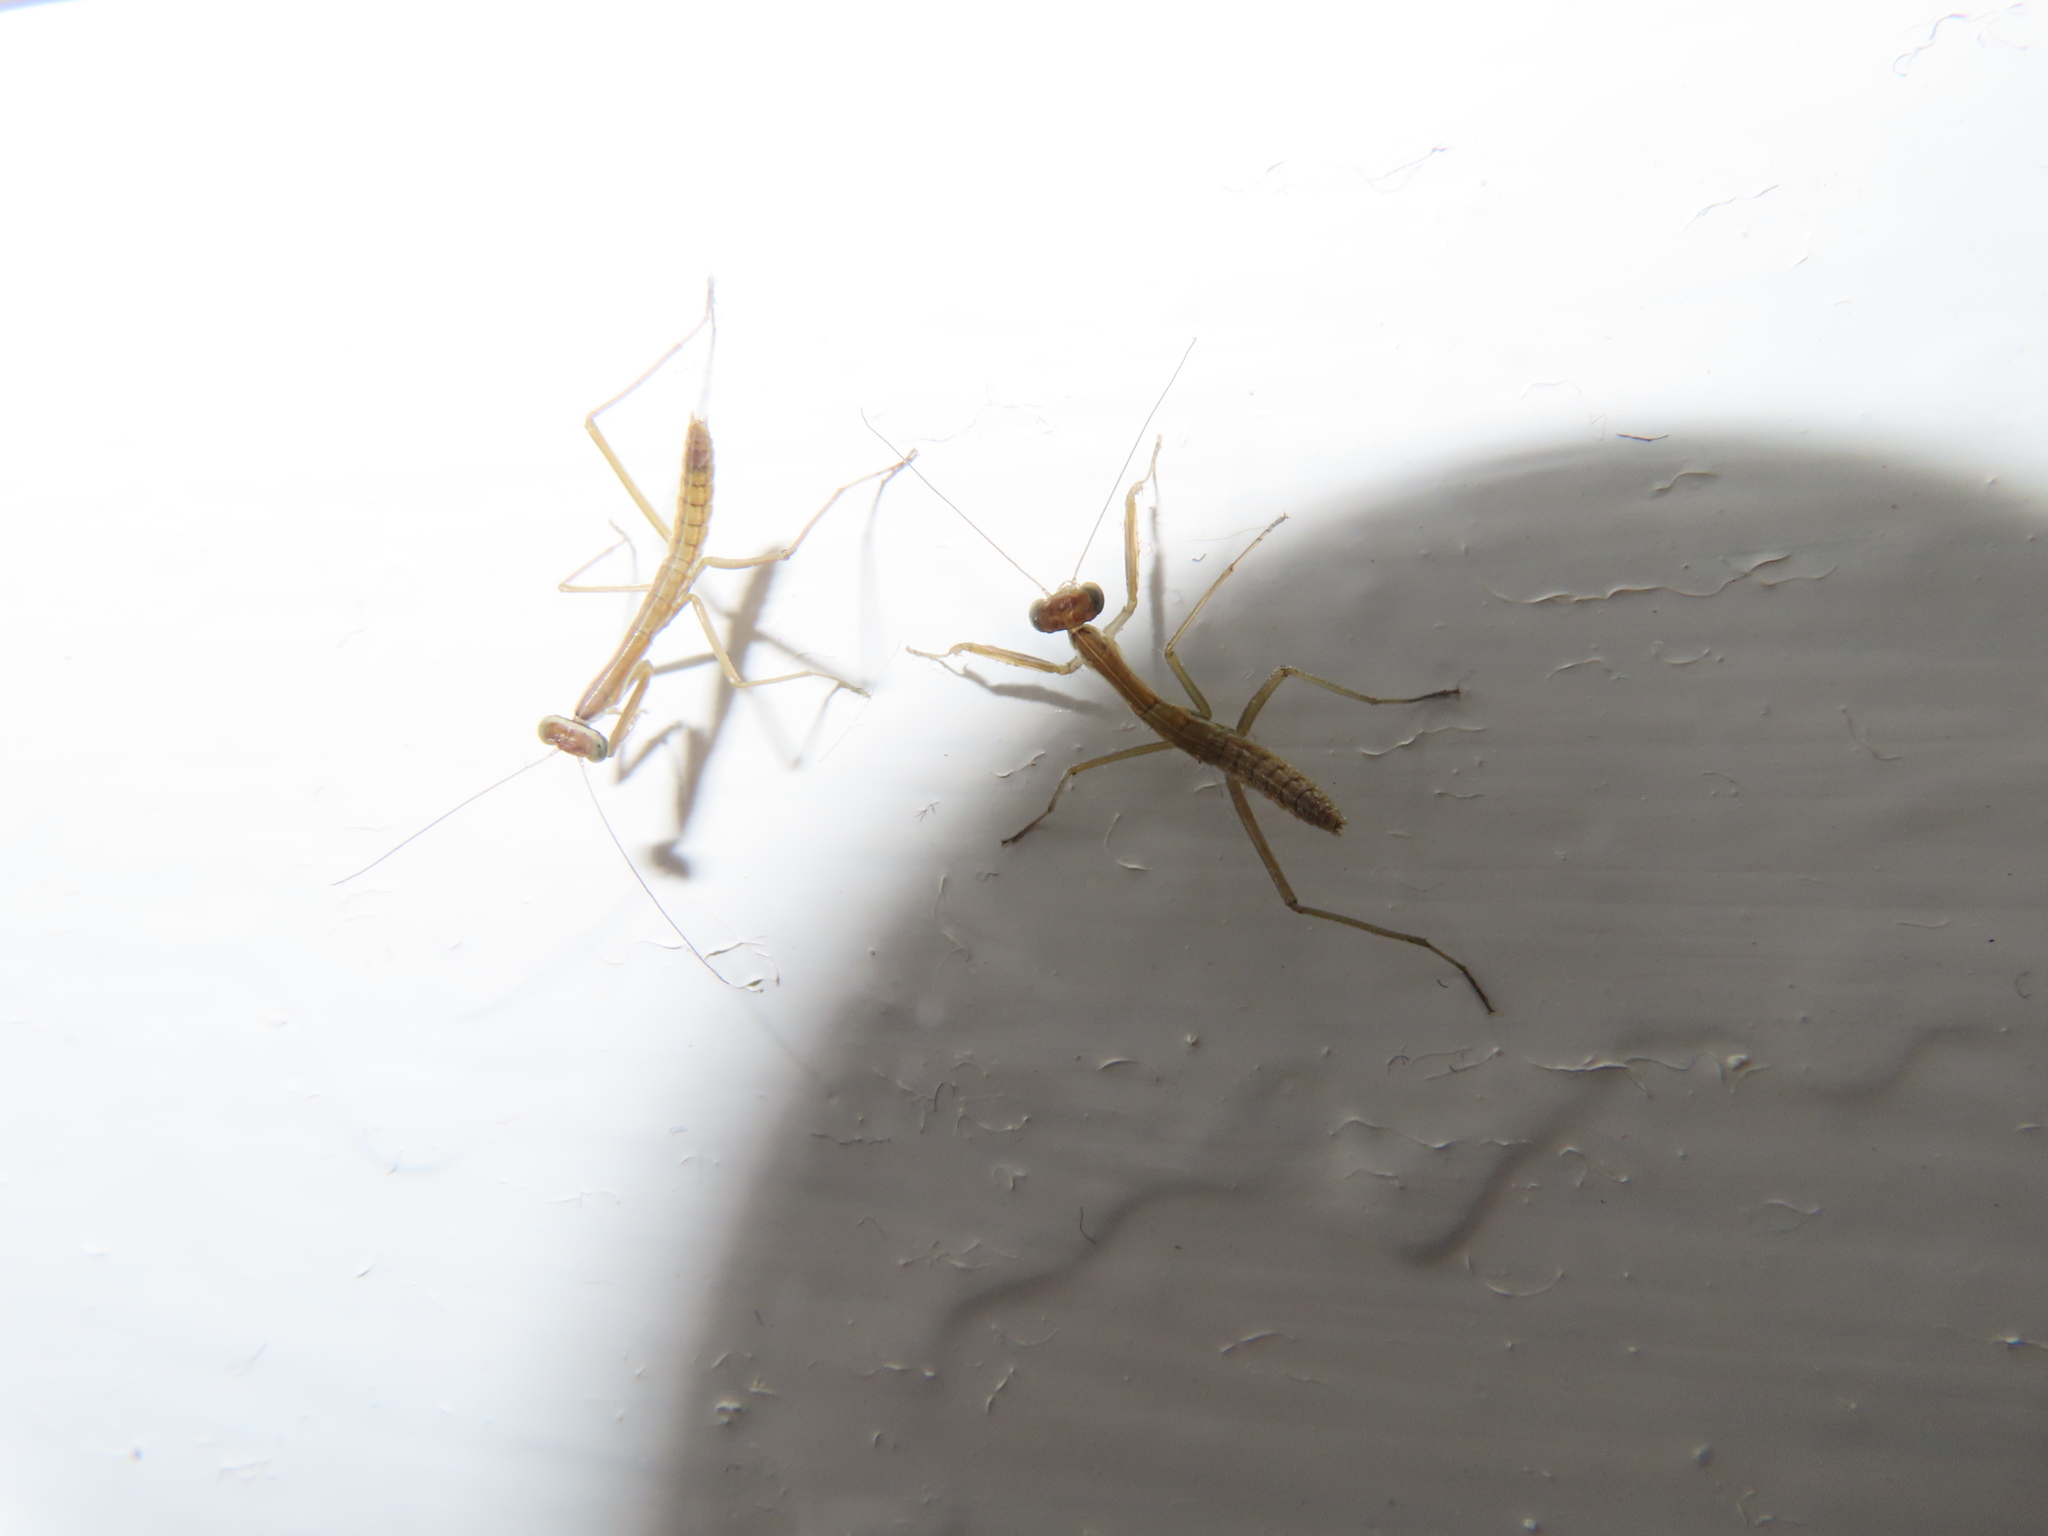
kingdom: Animalia
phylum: Arthropoda
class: Insecta
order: Mantodea
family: Mantidae
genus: Tenodera
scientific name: Tenodera sinensis
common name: Chinese mantis
